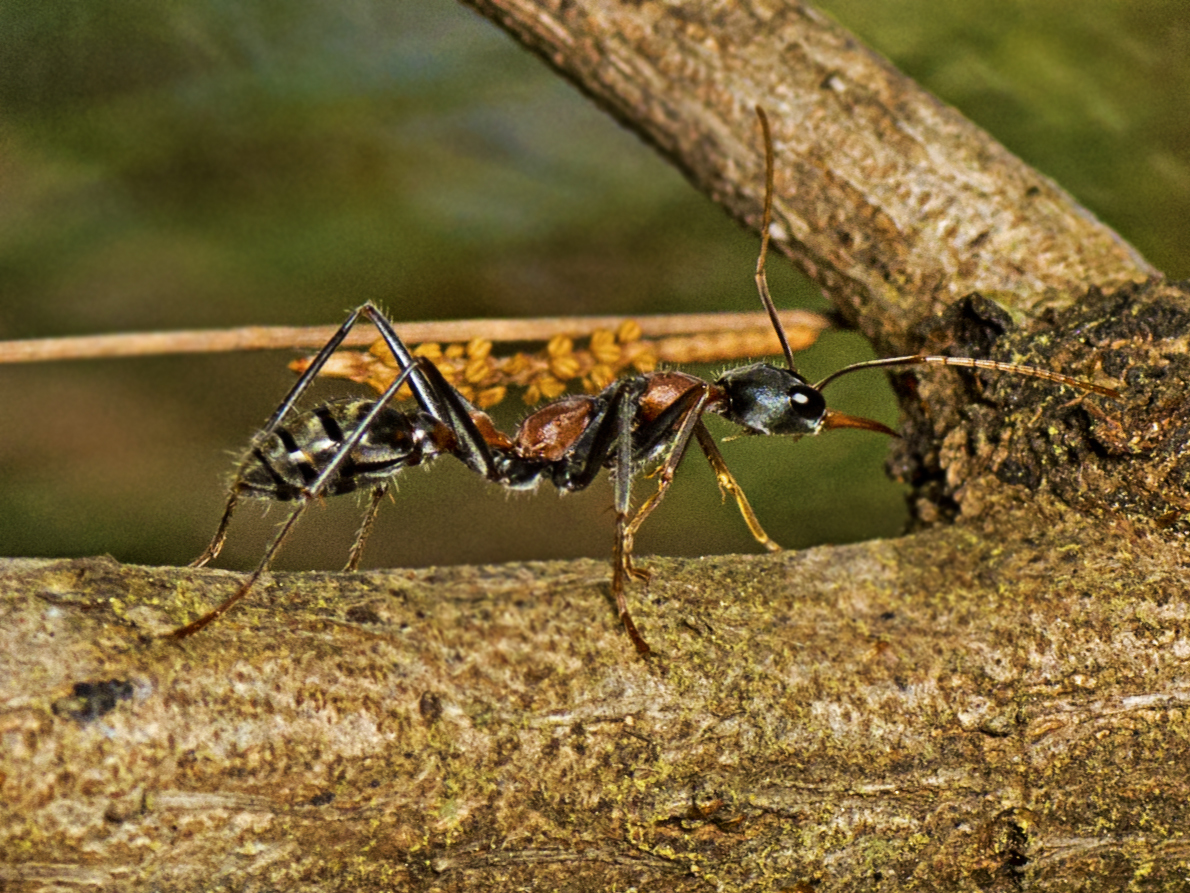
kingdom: Animalia
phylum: Arthropoda
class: Insecta
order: Hymenoptera
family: Formicidae
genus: Myrmecia
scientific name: Myrmecia nigrocincta
